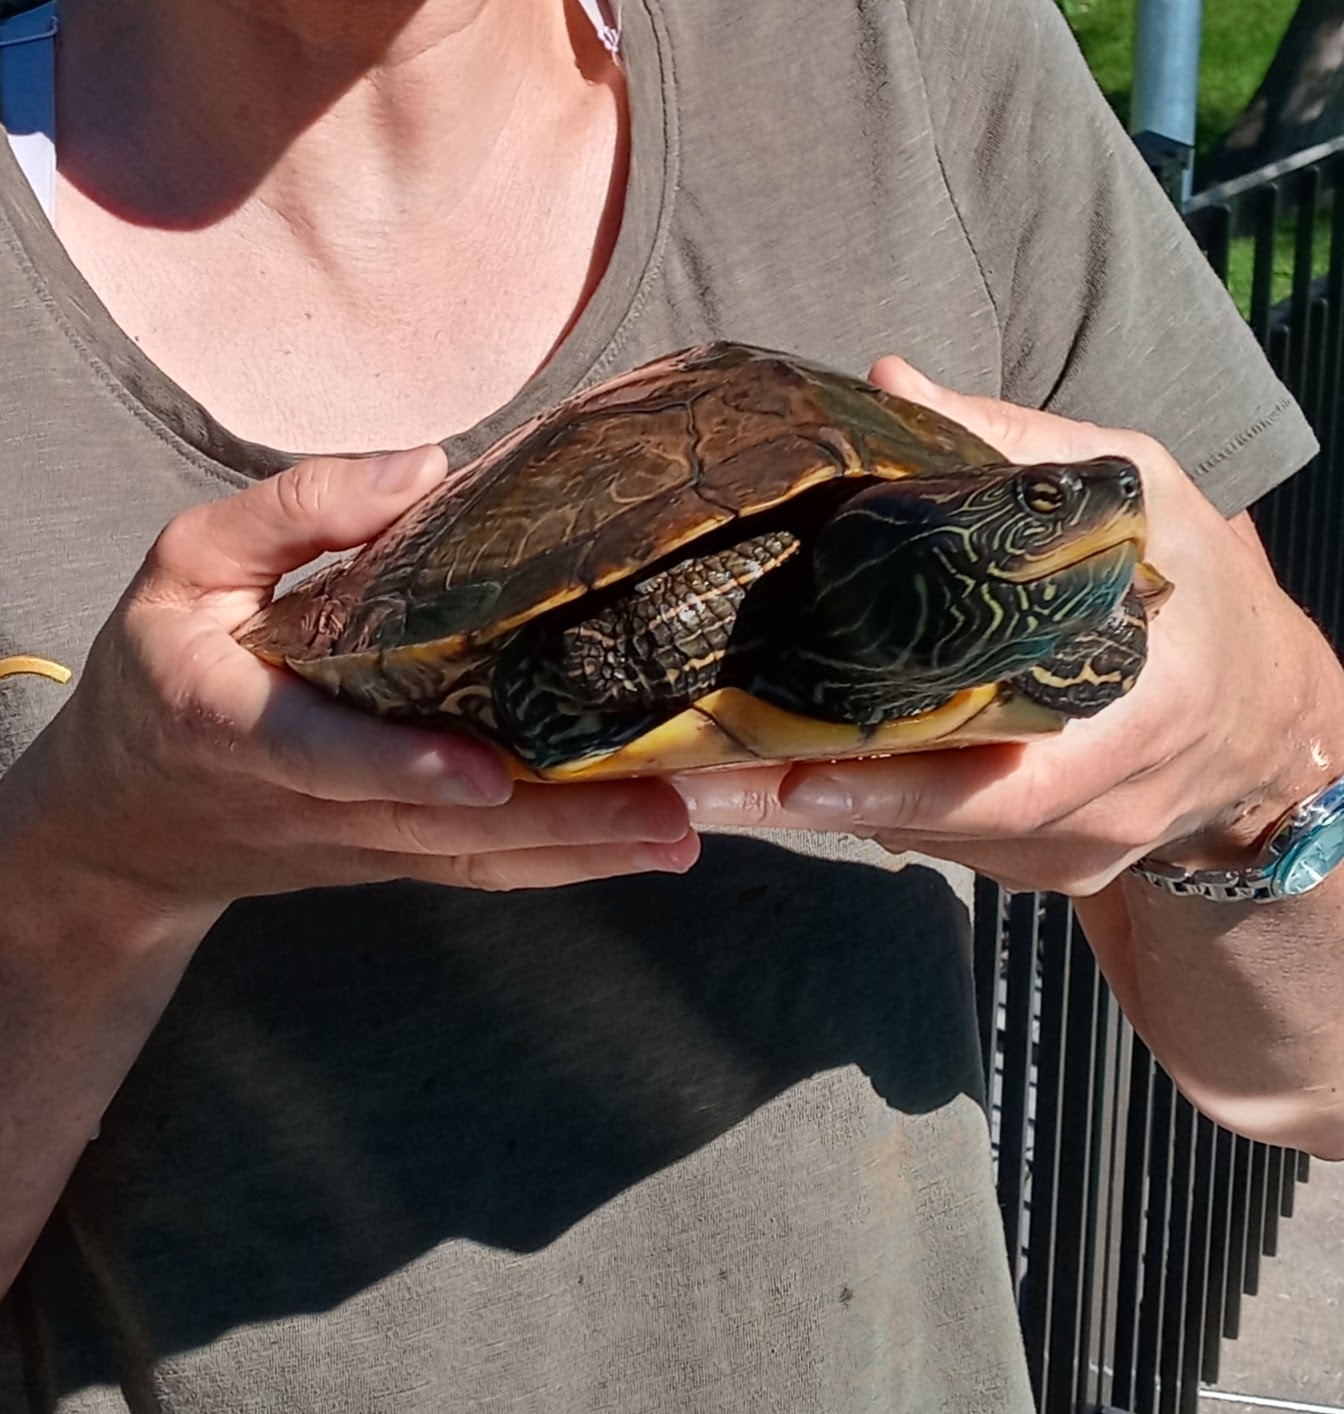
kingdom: Animalia
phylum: Chordata
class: Testudines
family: Emydidae
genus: Graptemys
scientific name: Graptemys geographica
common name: Common map turtle
